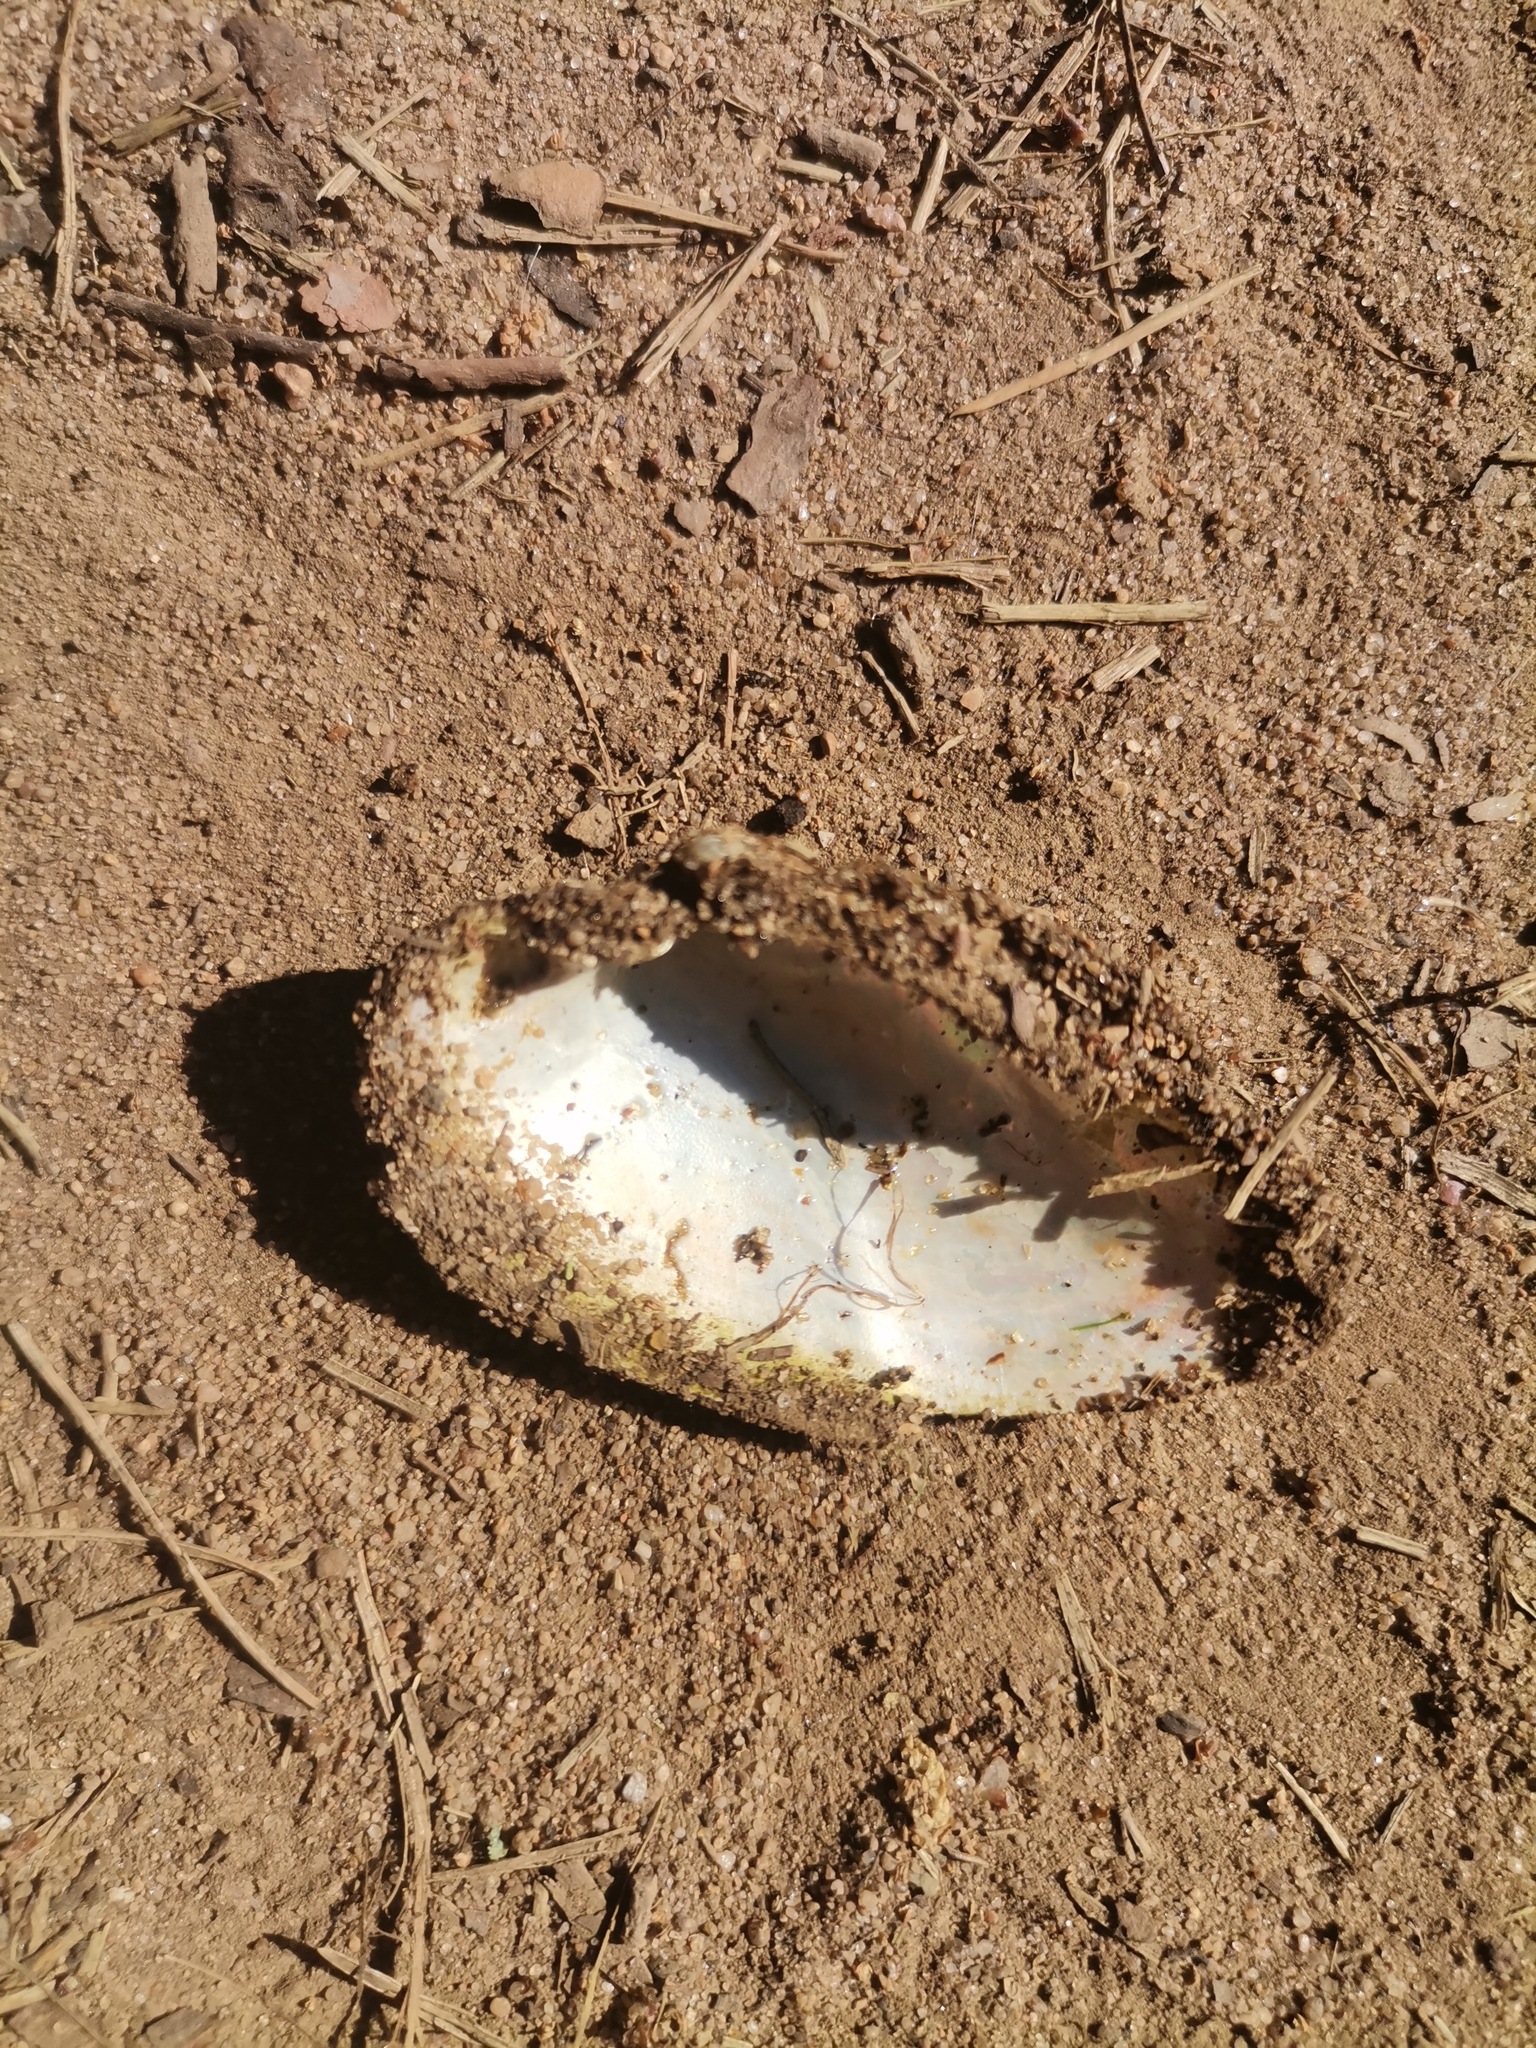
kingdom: Animalia
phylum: Mollusca
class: Bivalvia
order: Unionida
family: Unionidae
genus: Unio
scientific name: Unio tumidus
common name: Swollen river mussel
